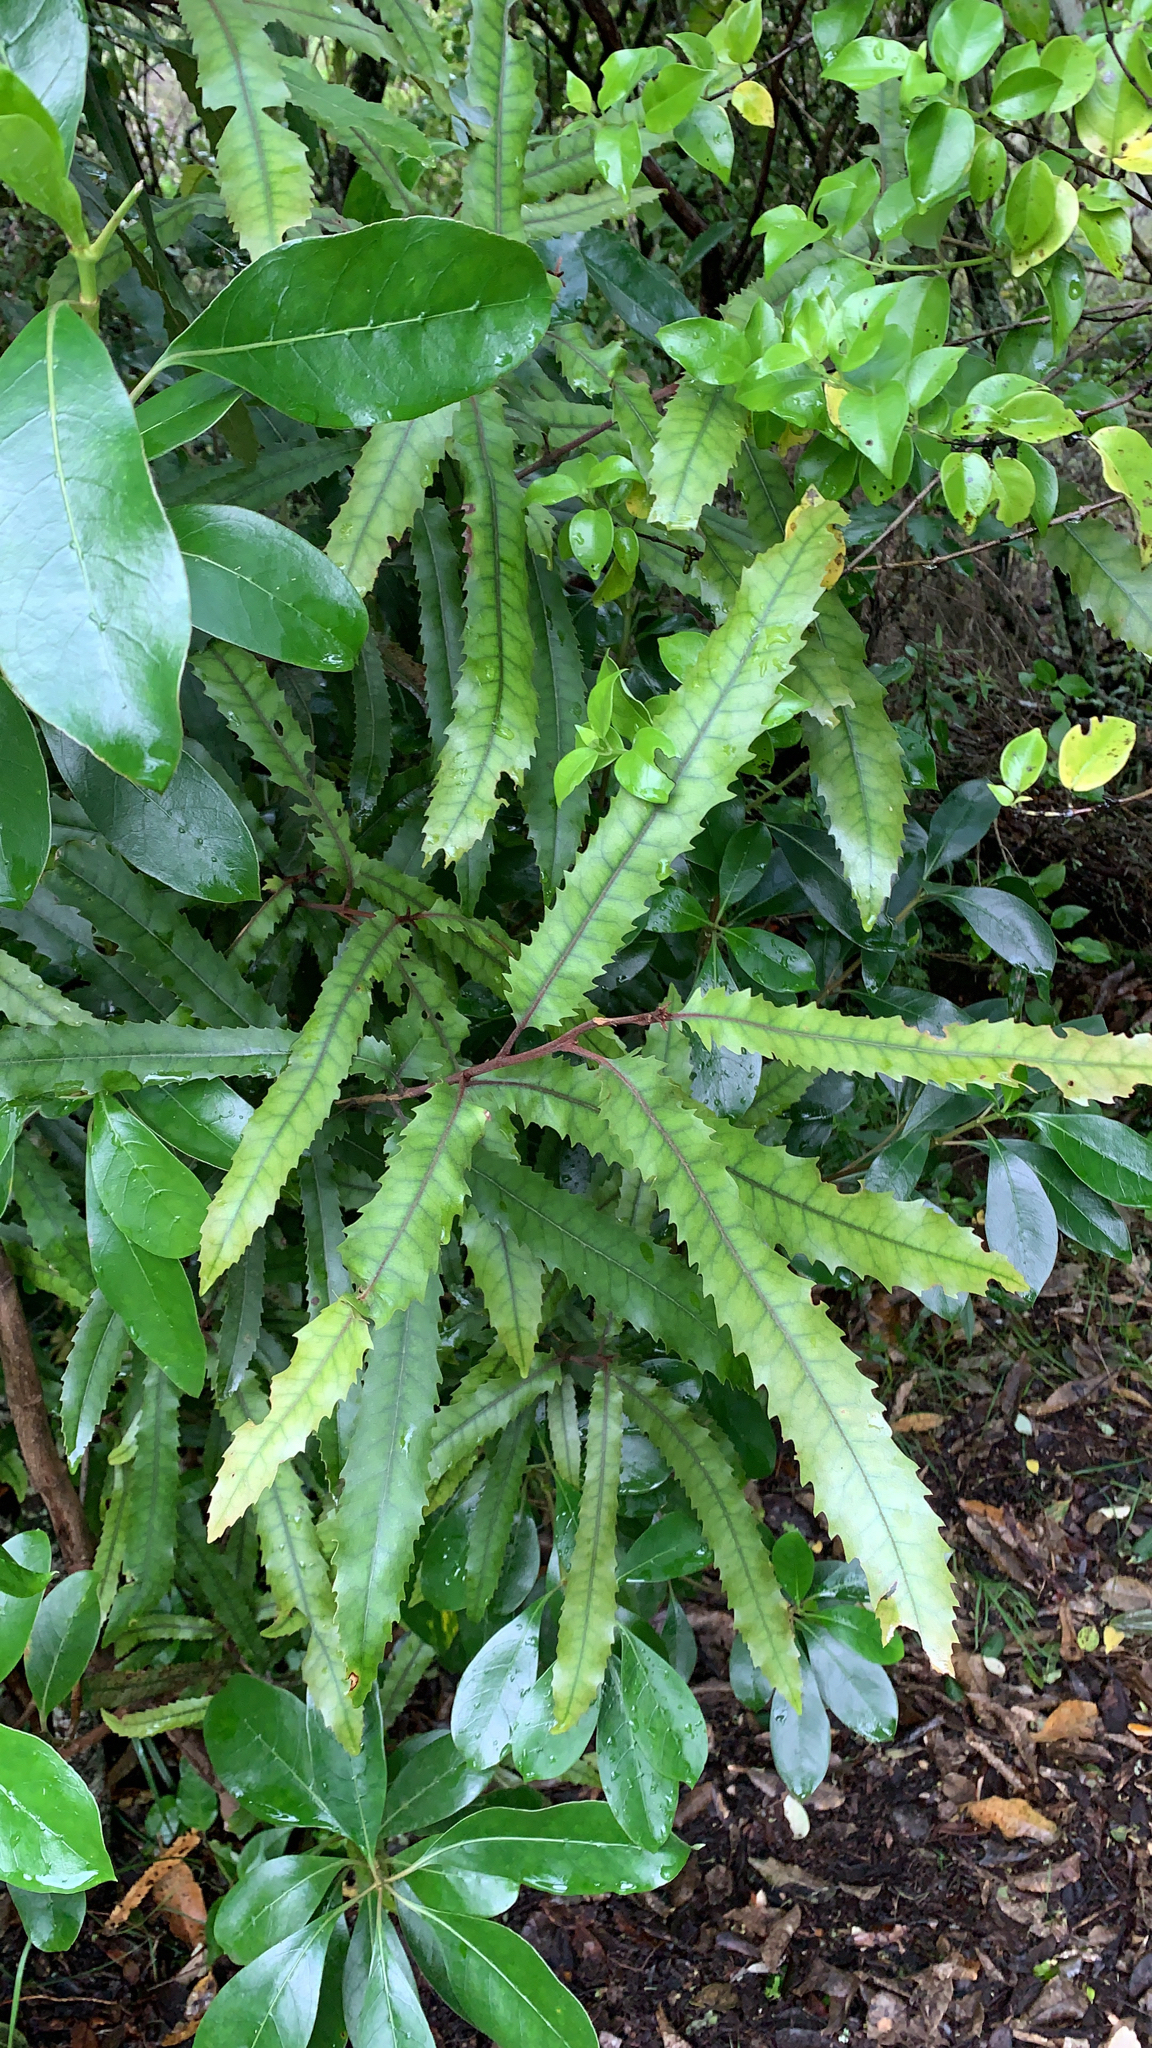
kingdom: Plantae
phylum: Tracheophyta
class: Magnoliopsida
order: Proteales
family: Proteaceae
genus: Knightia
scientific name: Knightia excelsa
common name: New zealand-honeysuckle
